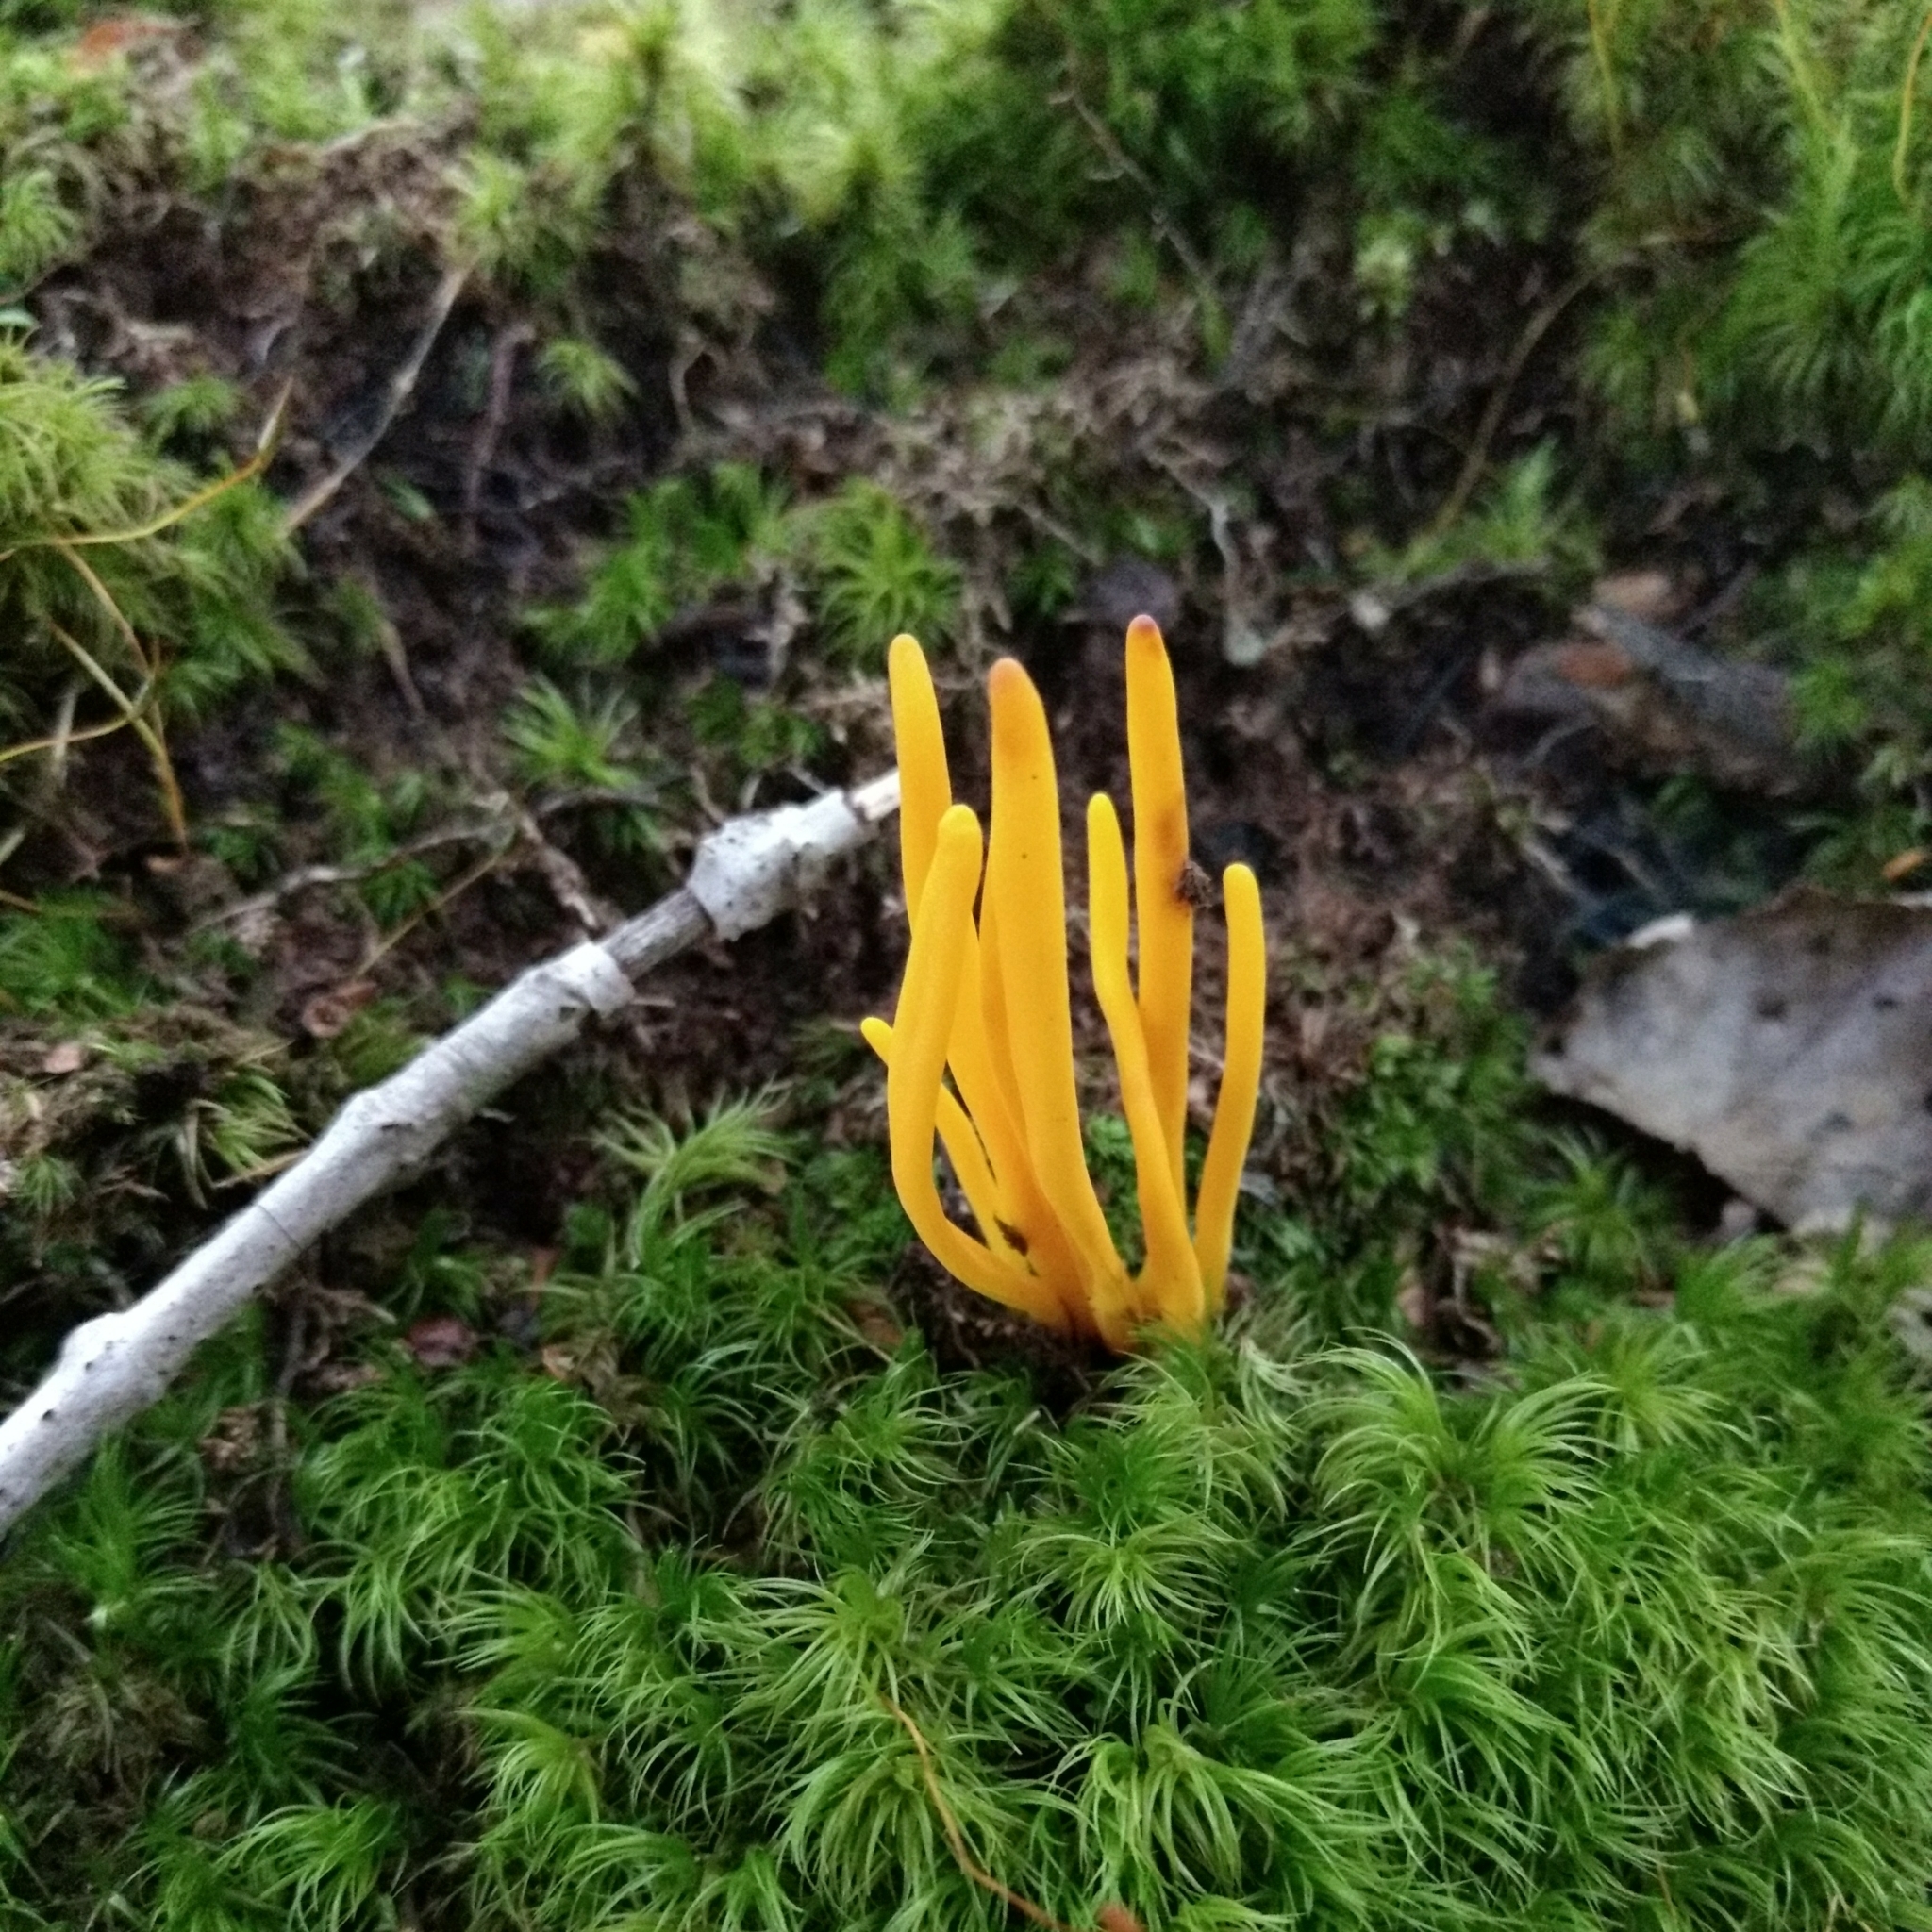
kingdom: Fungi
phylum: Basidiomycota
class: Agaricomycetes
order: Agaricales
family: Clavariaceae
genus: Clavulinopsis
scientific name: Clavulinopsis fusiformis
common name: Golden spindles
